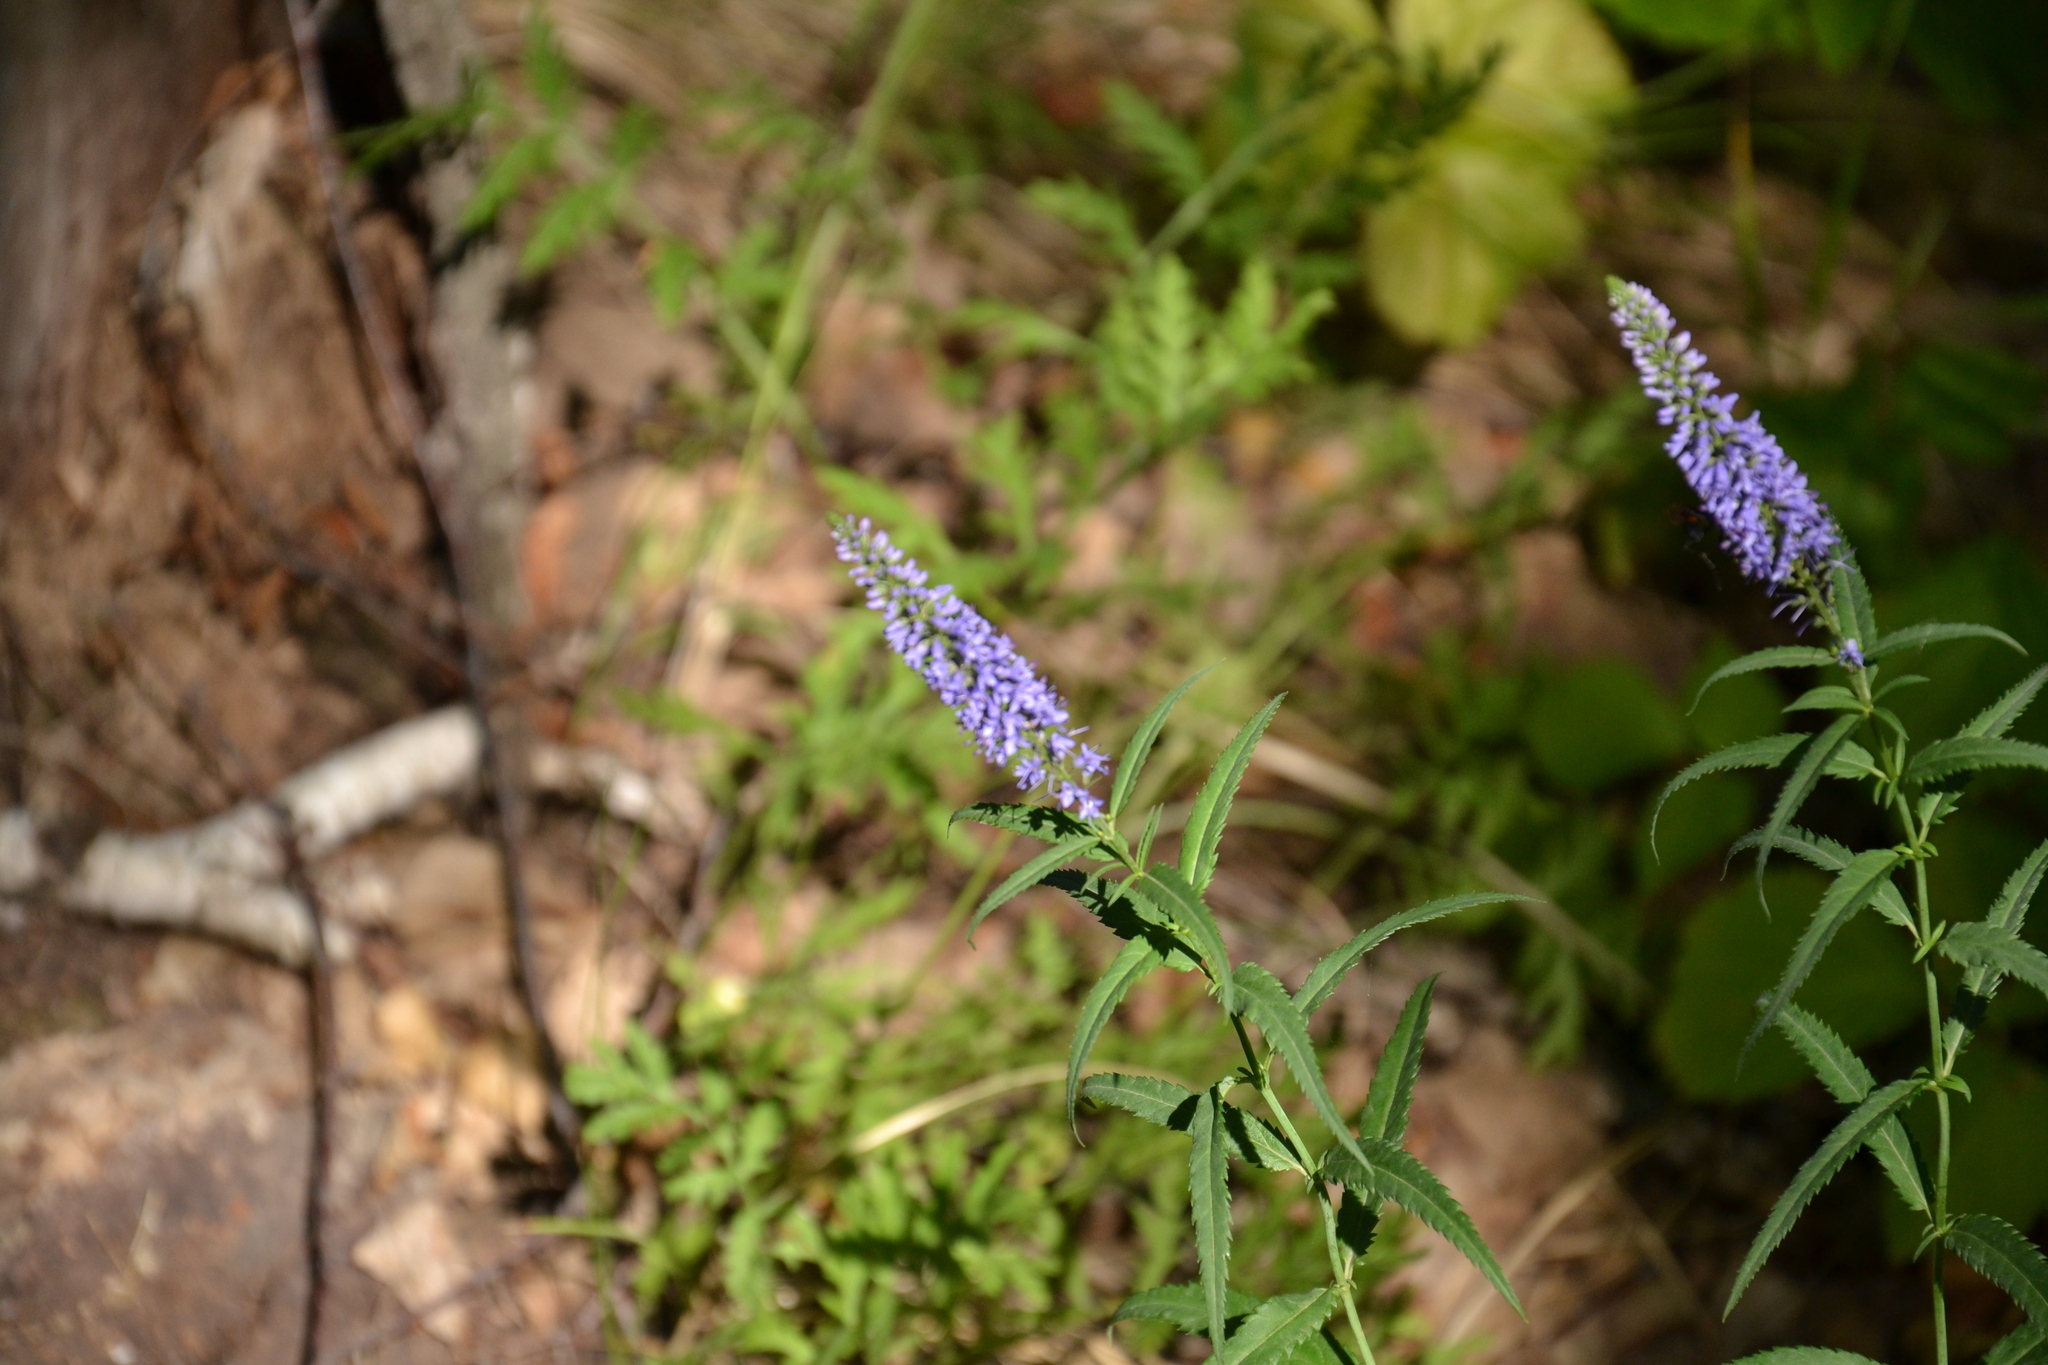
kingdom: Plantae
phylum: Tracheophyta
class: Magnoliopsida
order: Lamiales
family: Plantaginaceae
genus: Veronica
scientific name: Veronica longifolia
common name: Garden speedwell
